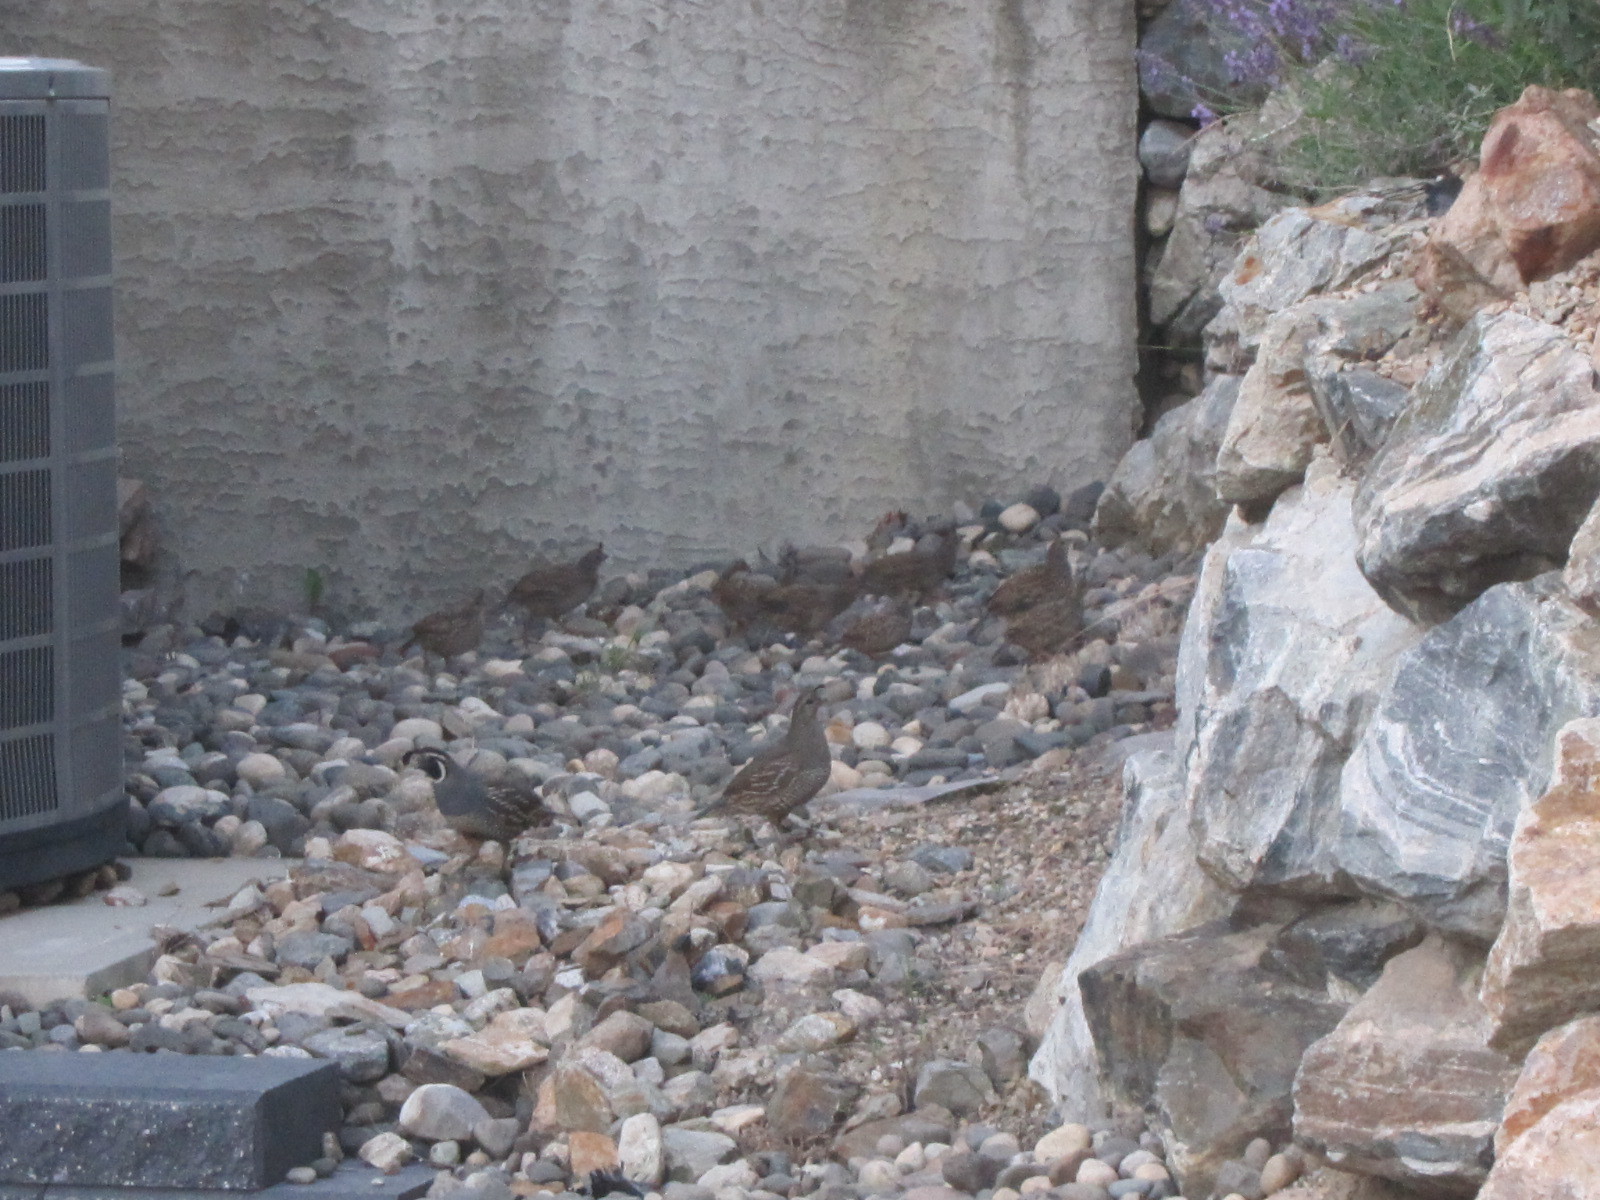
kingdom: Animalia
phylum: Chordata
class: Aves
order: Galliformes
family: Odontophoridae
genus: Callipepla
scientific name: Callipepla californica
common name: California quail
